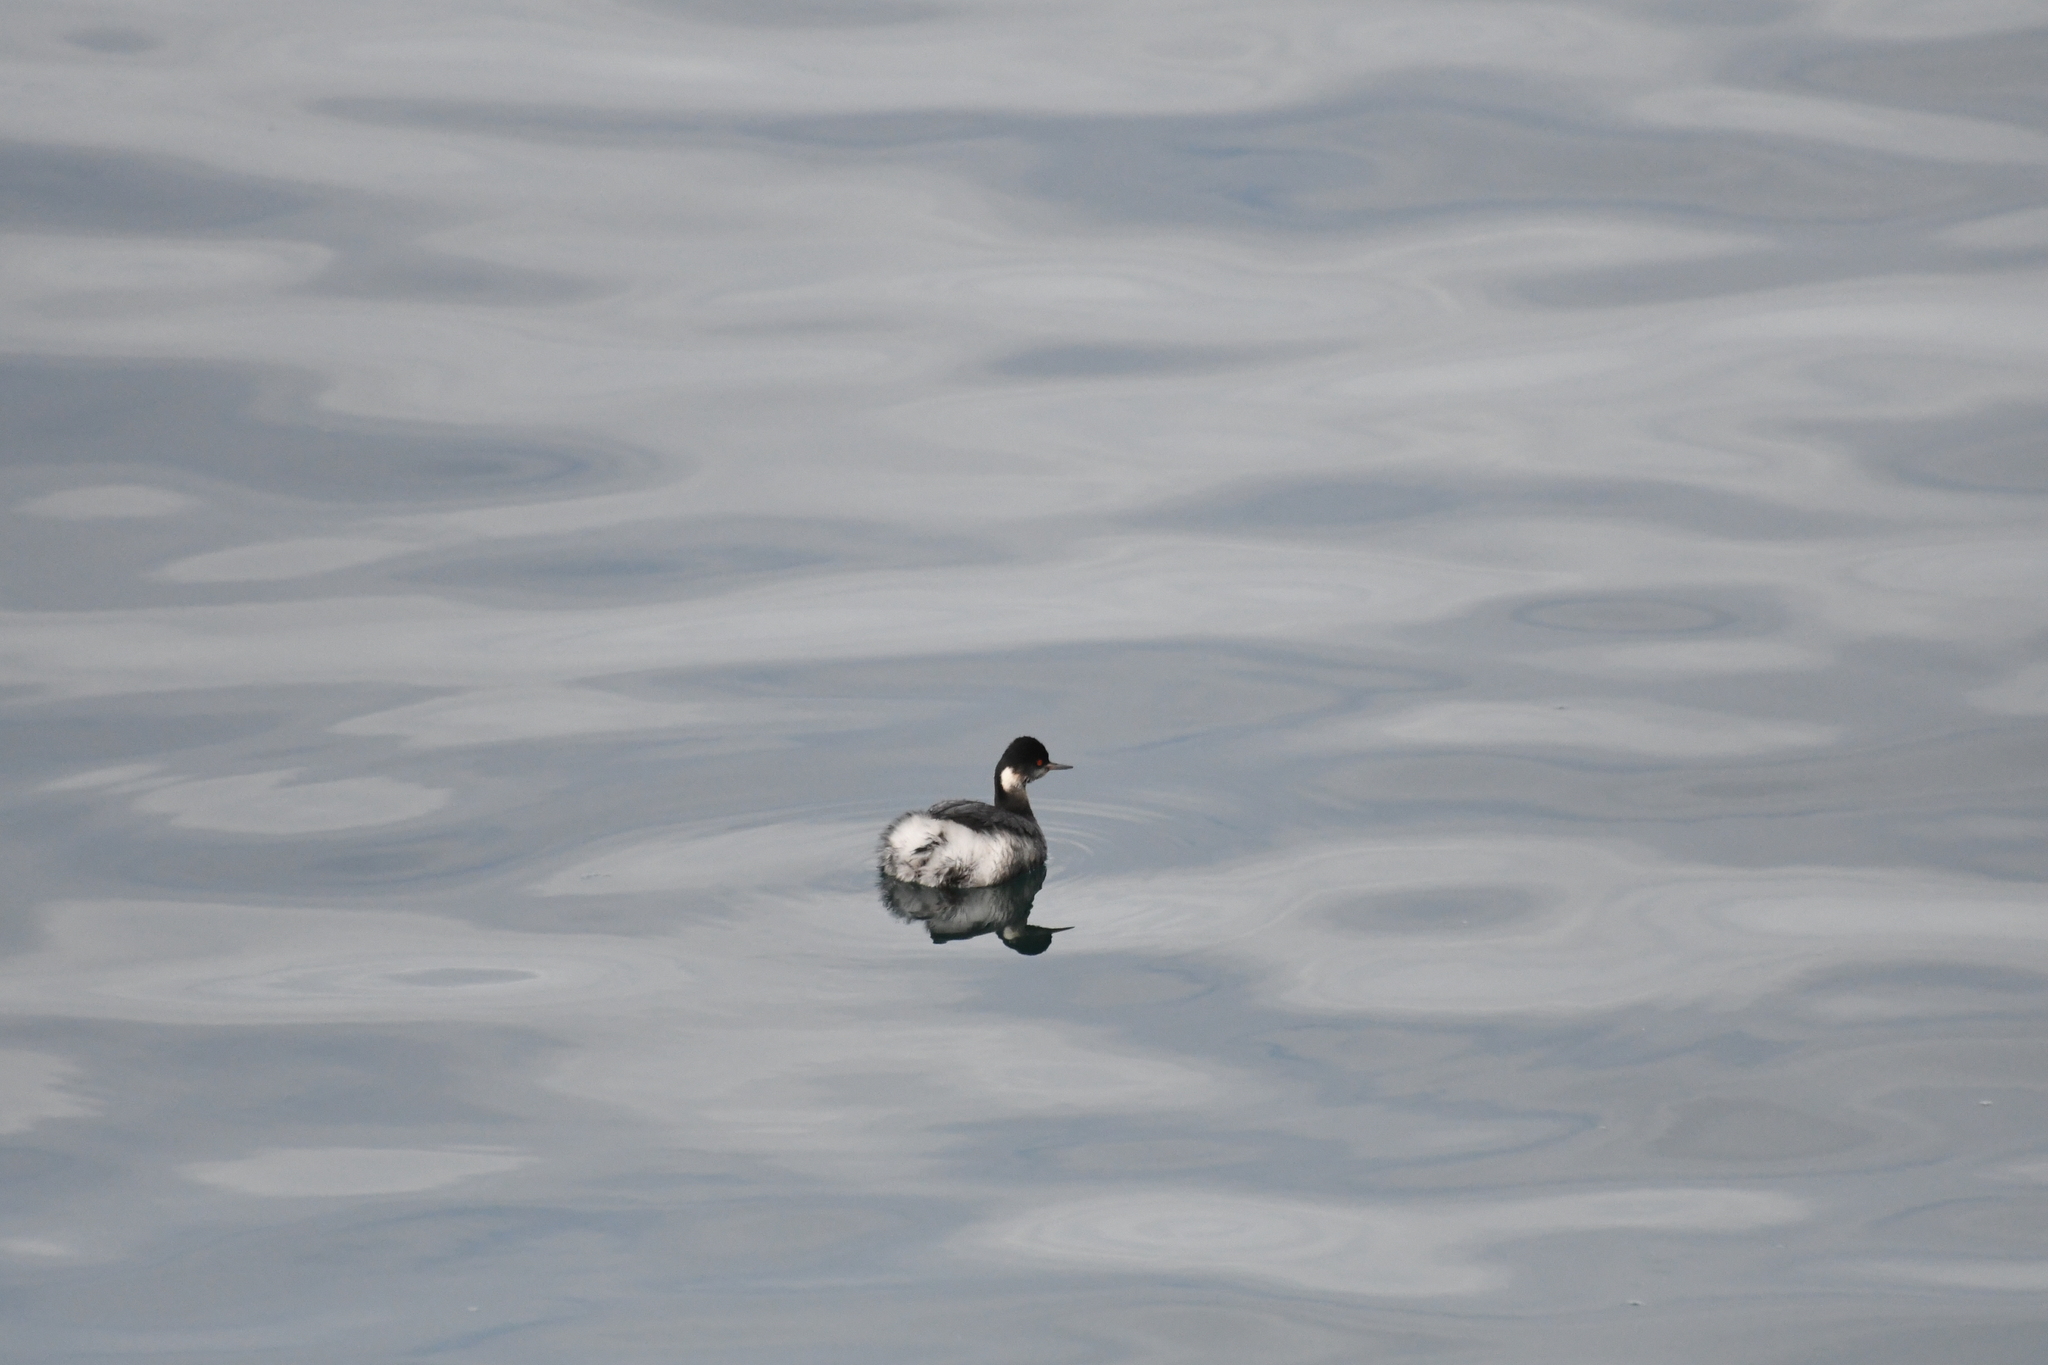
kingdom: Animalia
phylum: Chordata
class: Aves
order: Podicipediformes
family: Podicipedidae
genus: Podiceps
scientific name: Podiceps nigricollis
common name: Black-necked grebe
